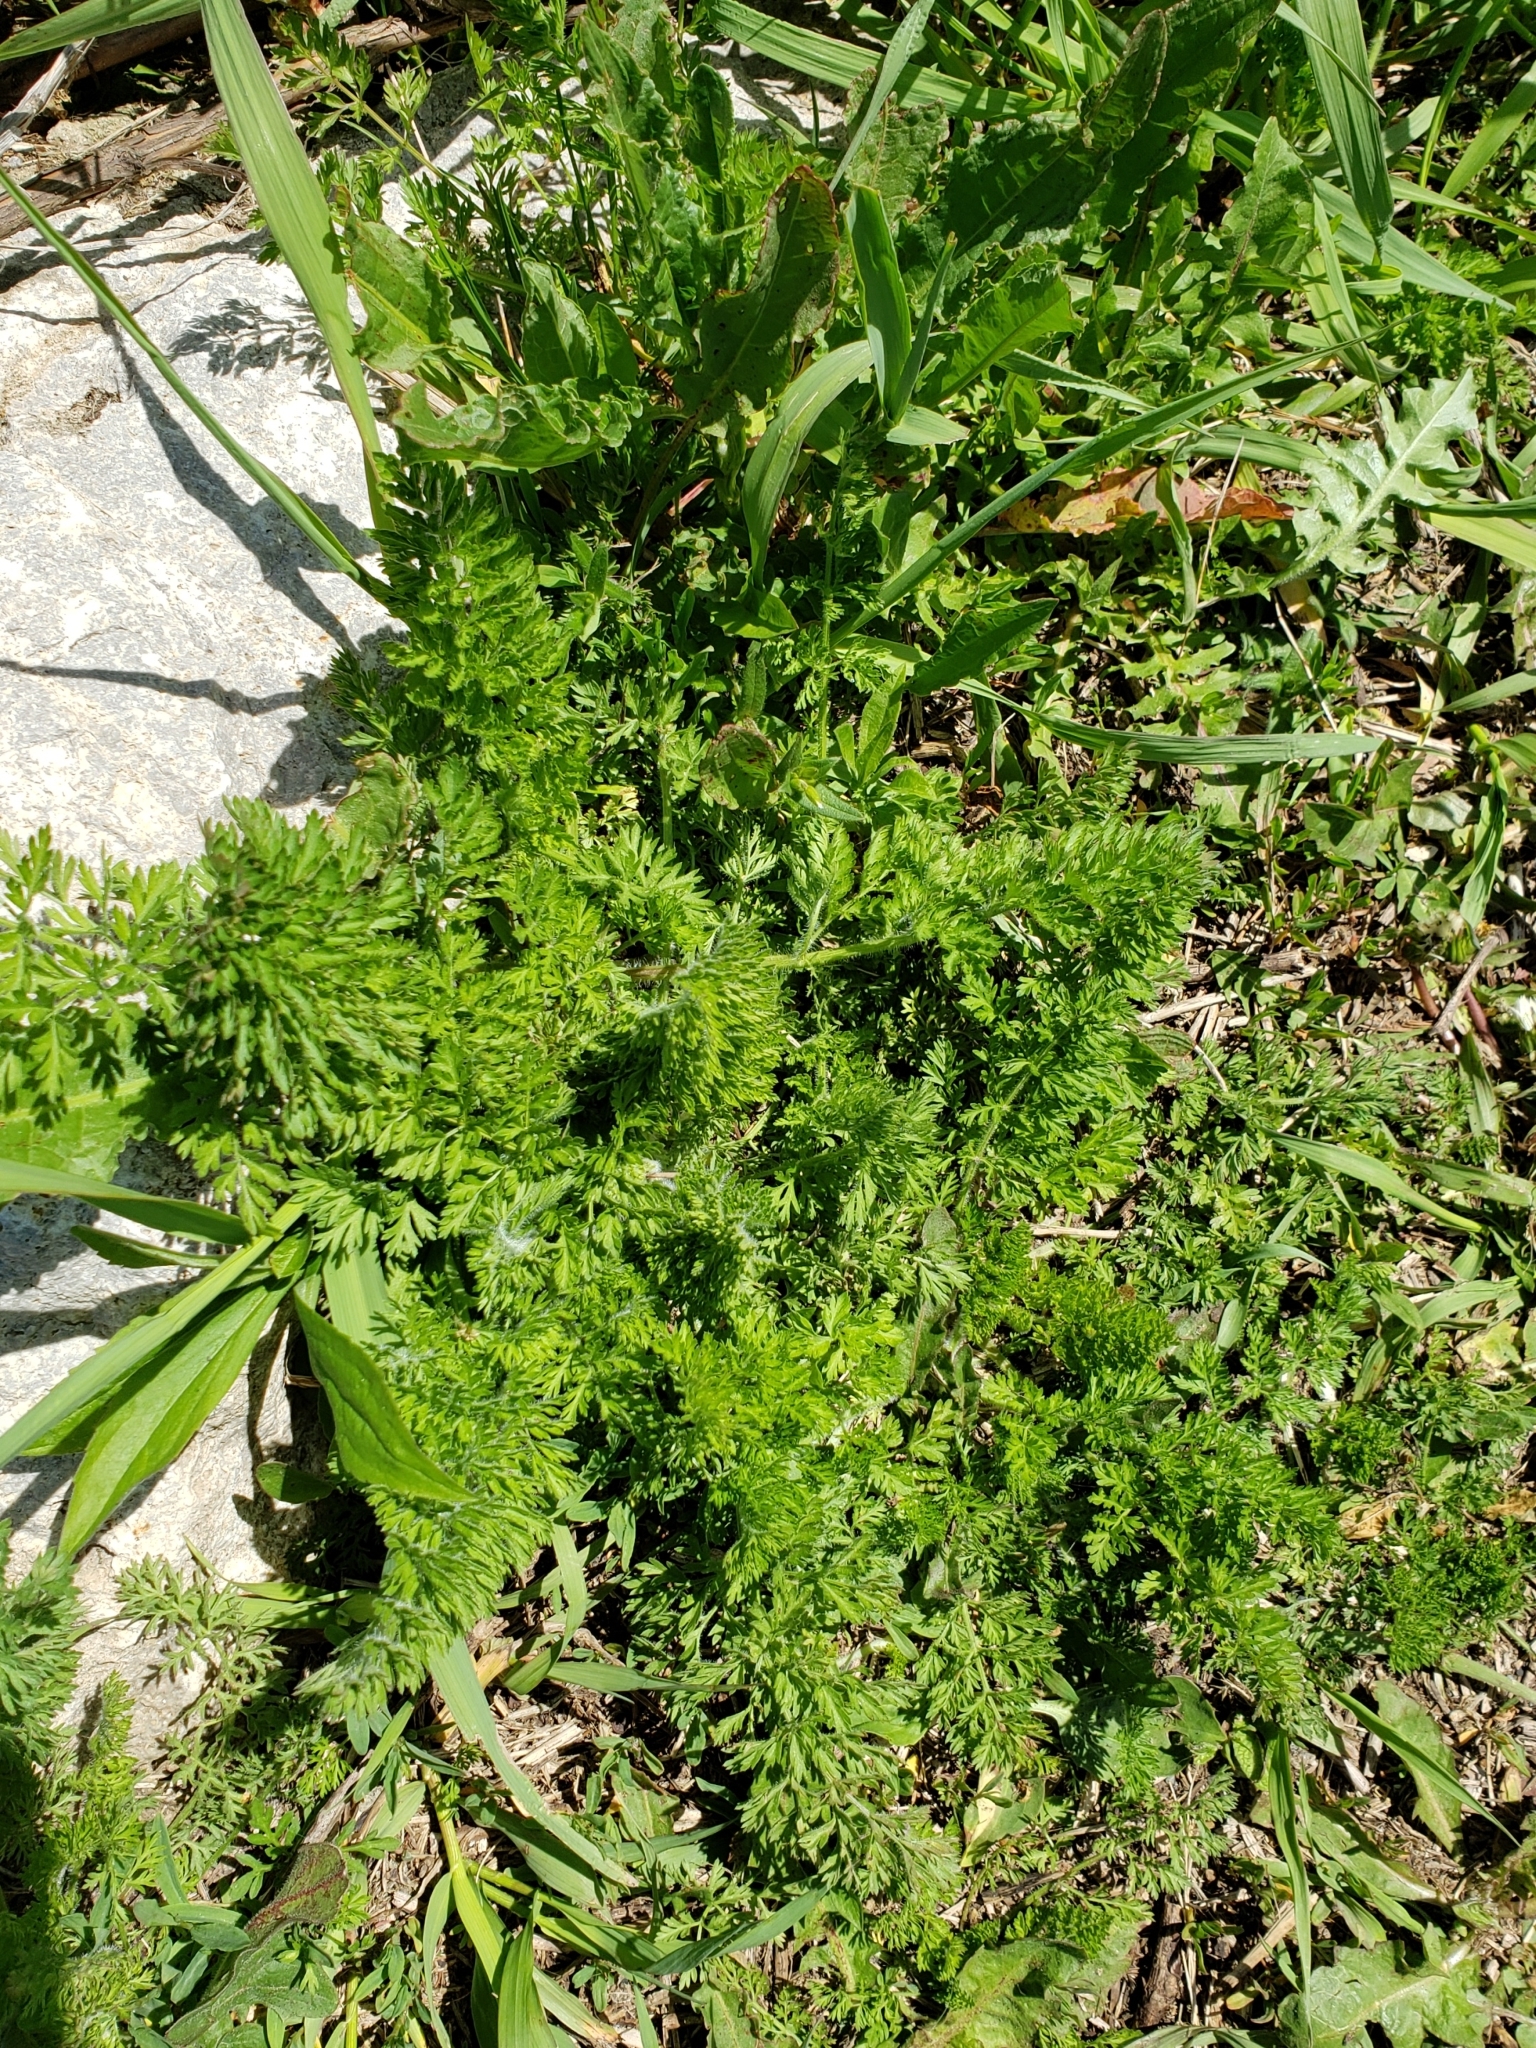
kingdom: Plantae
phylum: Tracheophyta
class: Magnoliopsida
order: Apiales
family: Apiaceae
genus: Daucus
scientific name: Daucus carota
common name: Wild carrot
